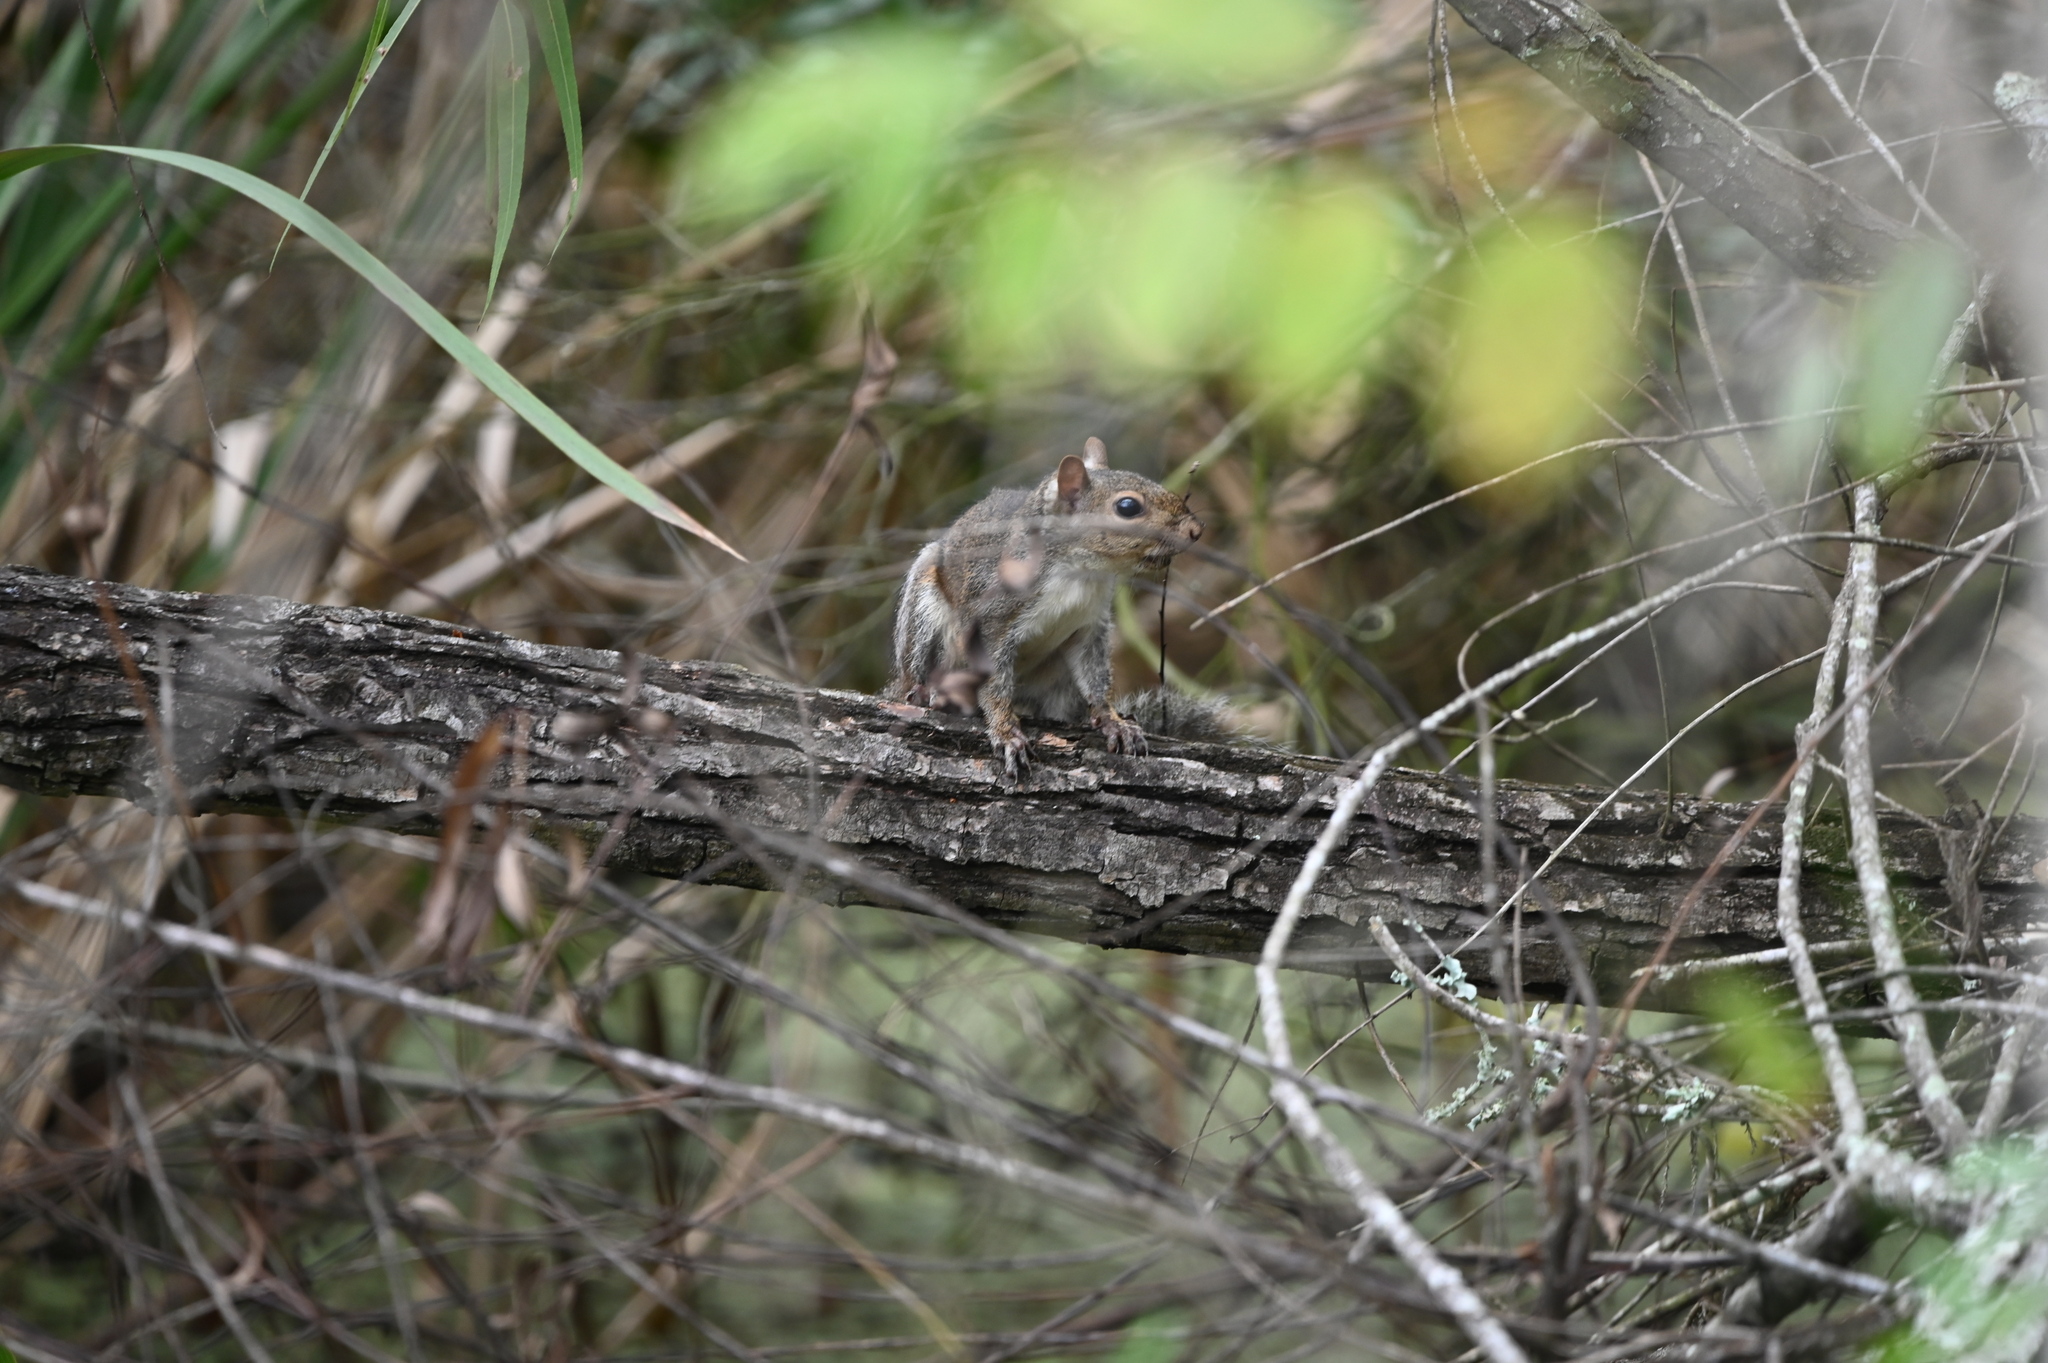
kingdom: Animalia
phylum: Chordata
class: Mammalia
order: Rodentia
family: Sciuridae
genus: Sciurus
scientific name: Sciurus carolinensis
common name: Eastern gray squirrel
